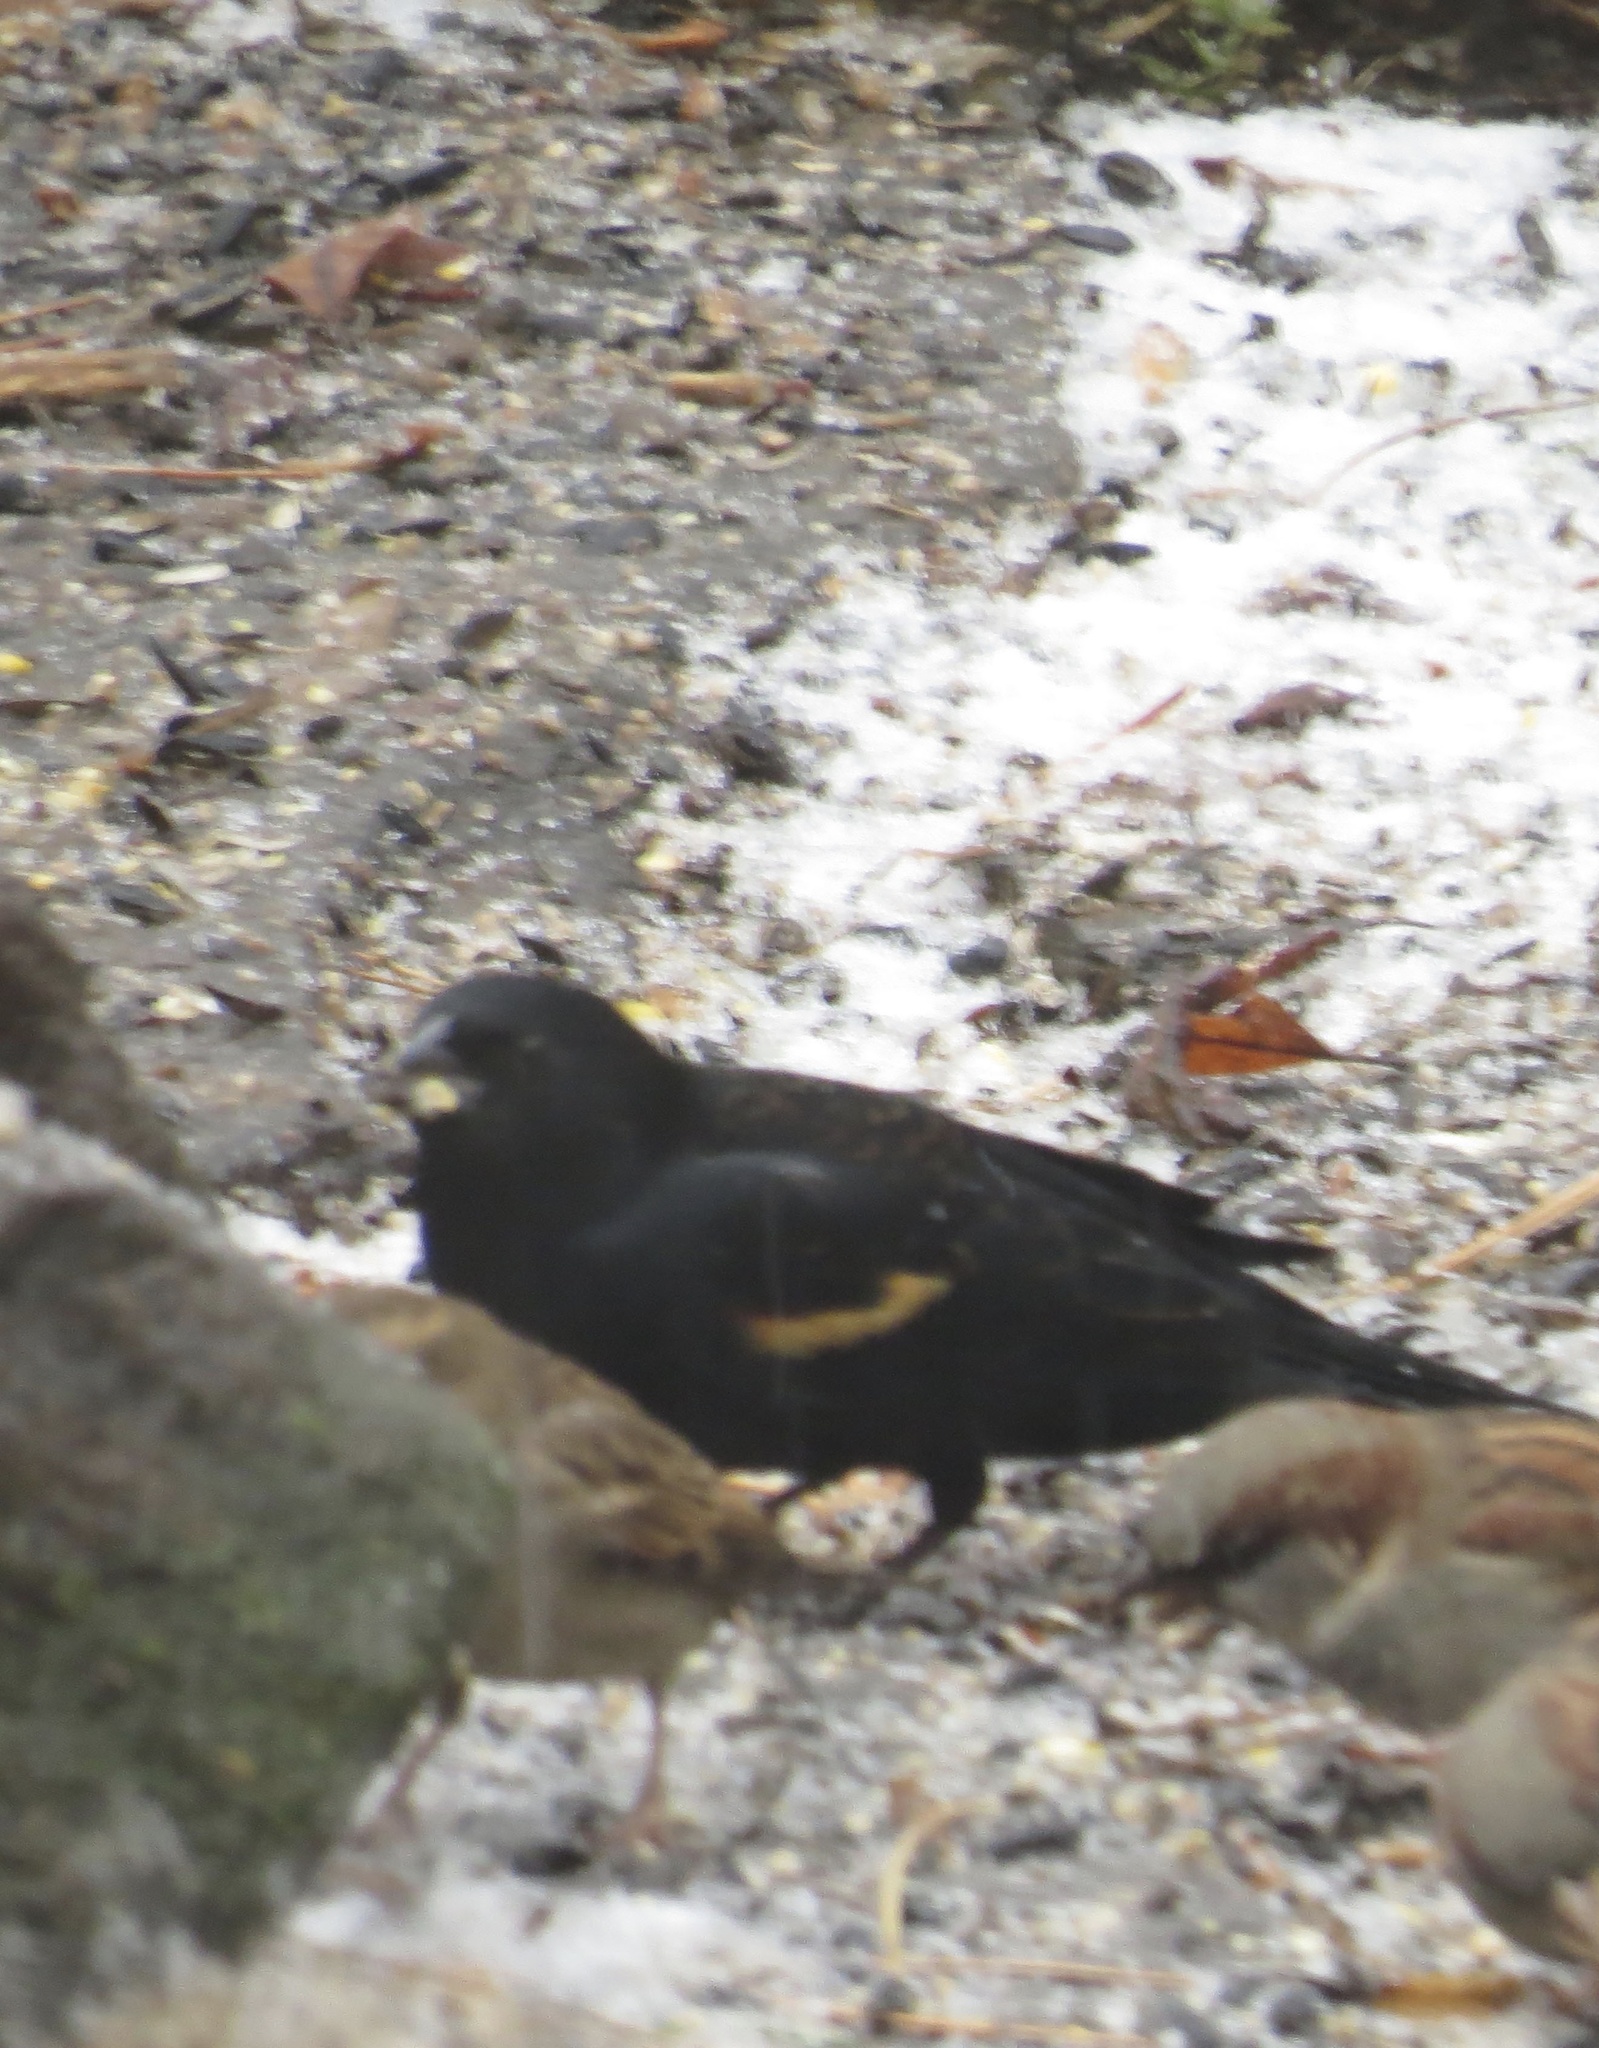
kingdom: Animalia
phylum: Chordata
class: Aves
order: Passeriformes
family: Icteridae
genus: Agelaius
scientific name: Agelaius phoeniceus
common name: Red-winged blackbird
